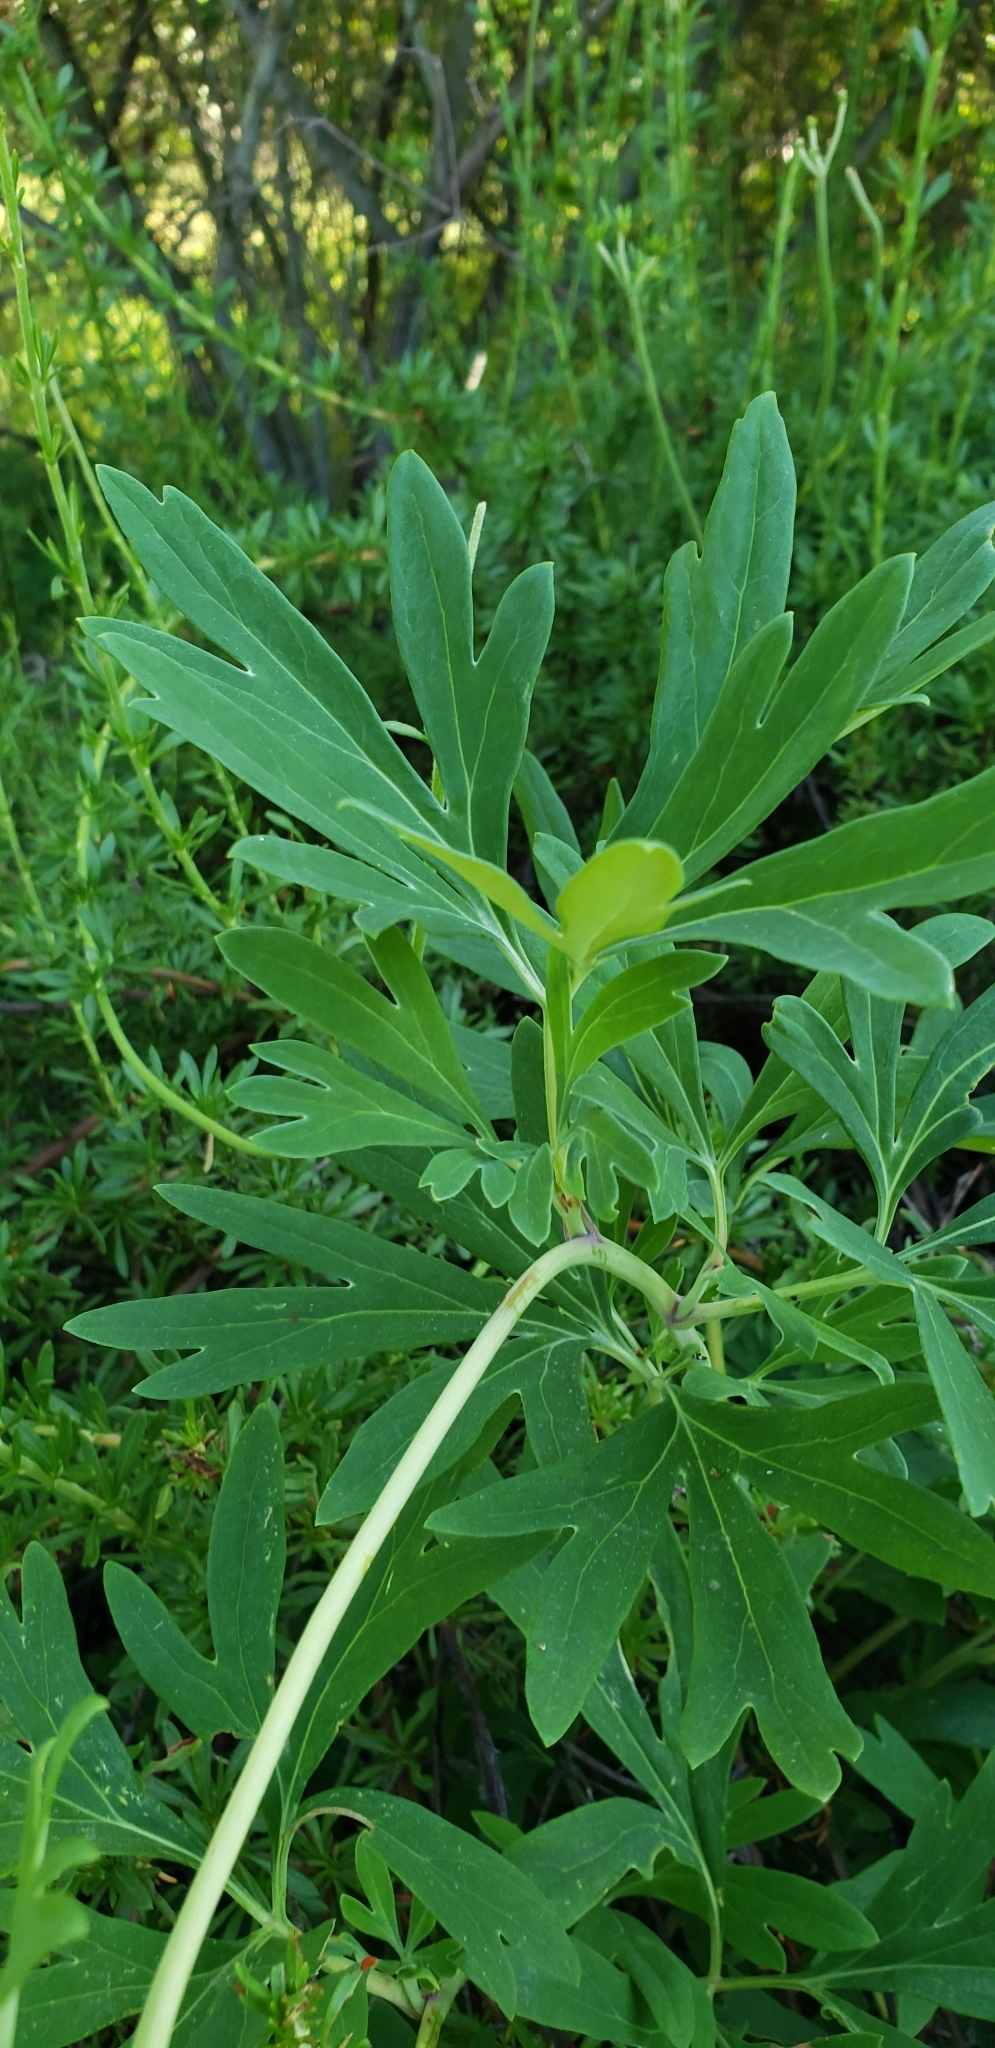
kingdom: Plantae
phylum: Tracheophyta
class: Magnoliopsida
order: Saxifragales
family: Paeoniaceae
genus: Paeonia
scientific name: Paeonia californica
